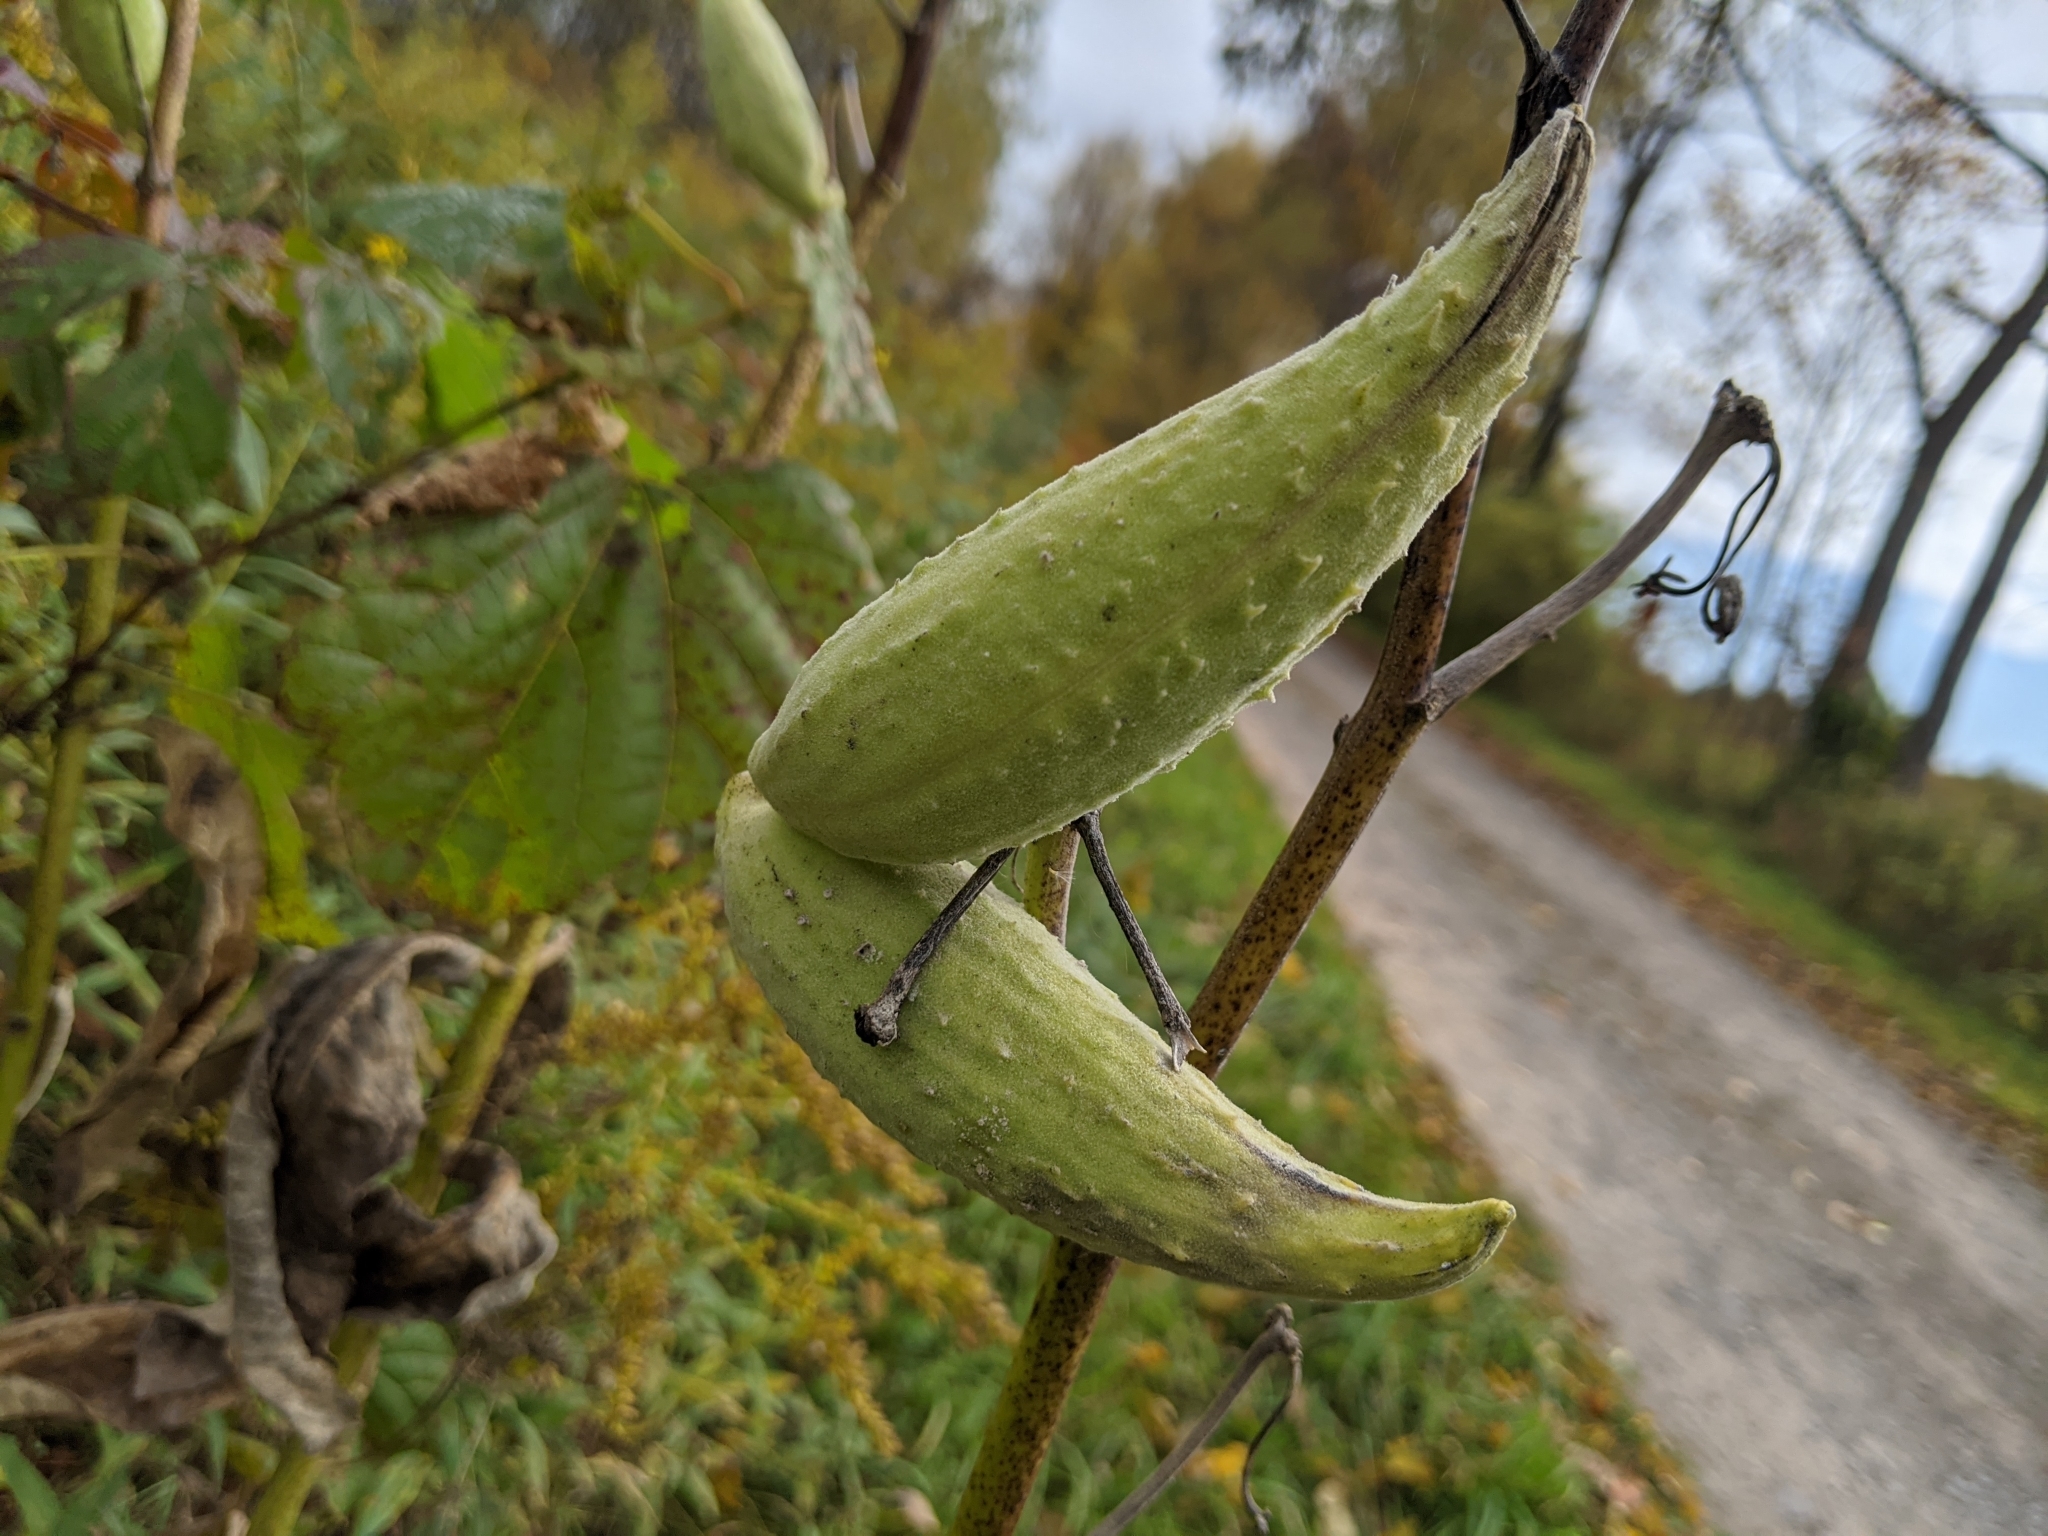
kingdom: Plantae
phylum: Tracheophyta
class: Magnoliopsida
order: Gentianales
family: Apocynaceae
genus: Asclepias
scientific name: Asclepias syriaca
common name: Common milkweed
